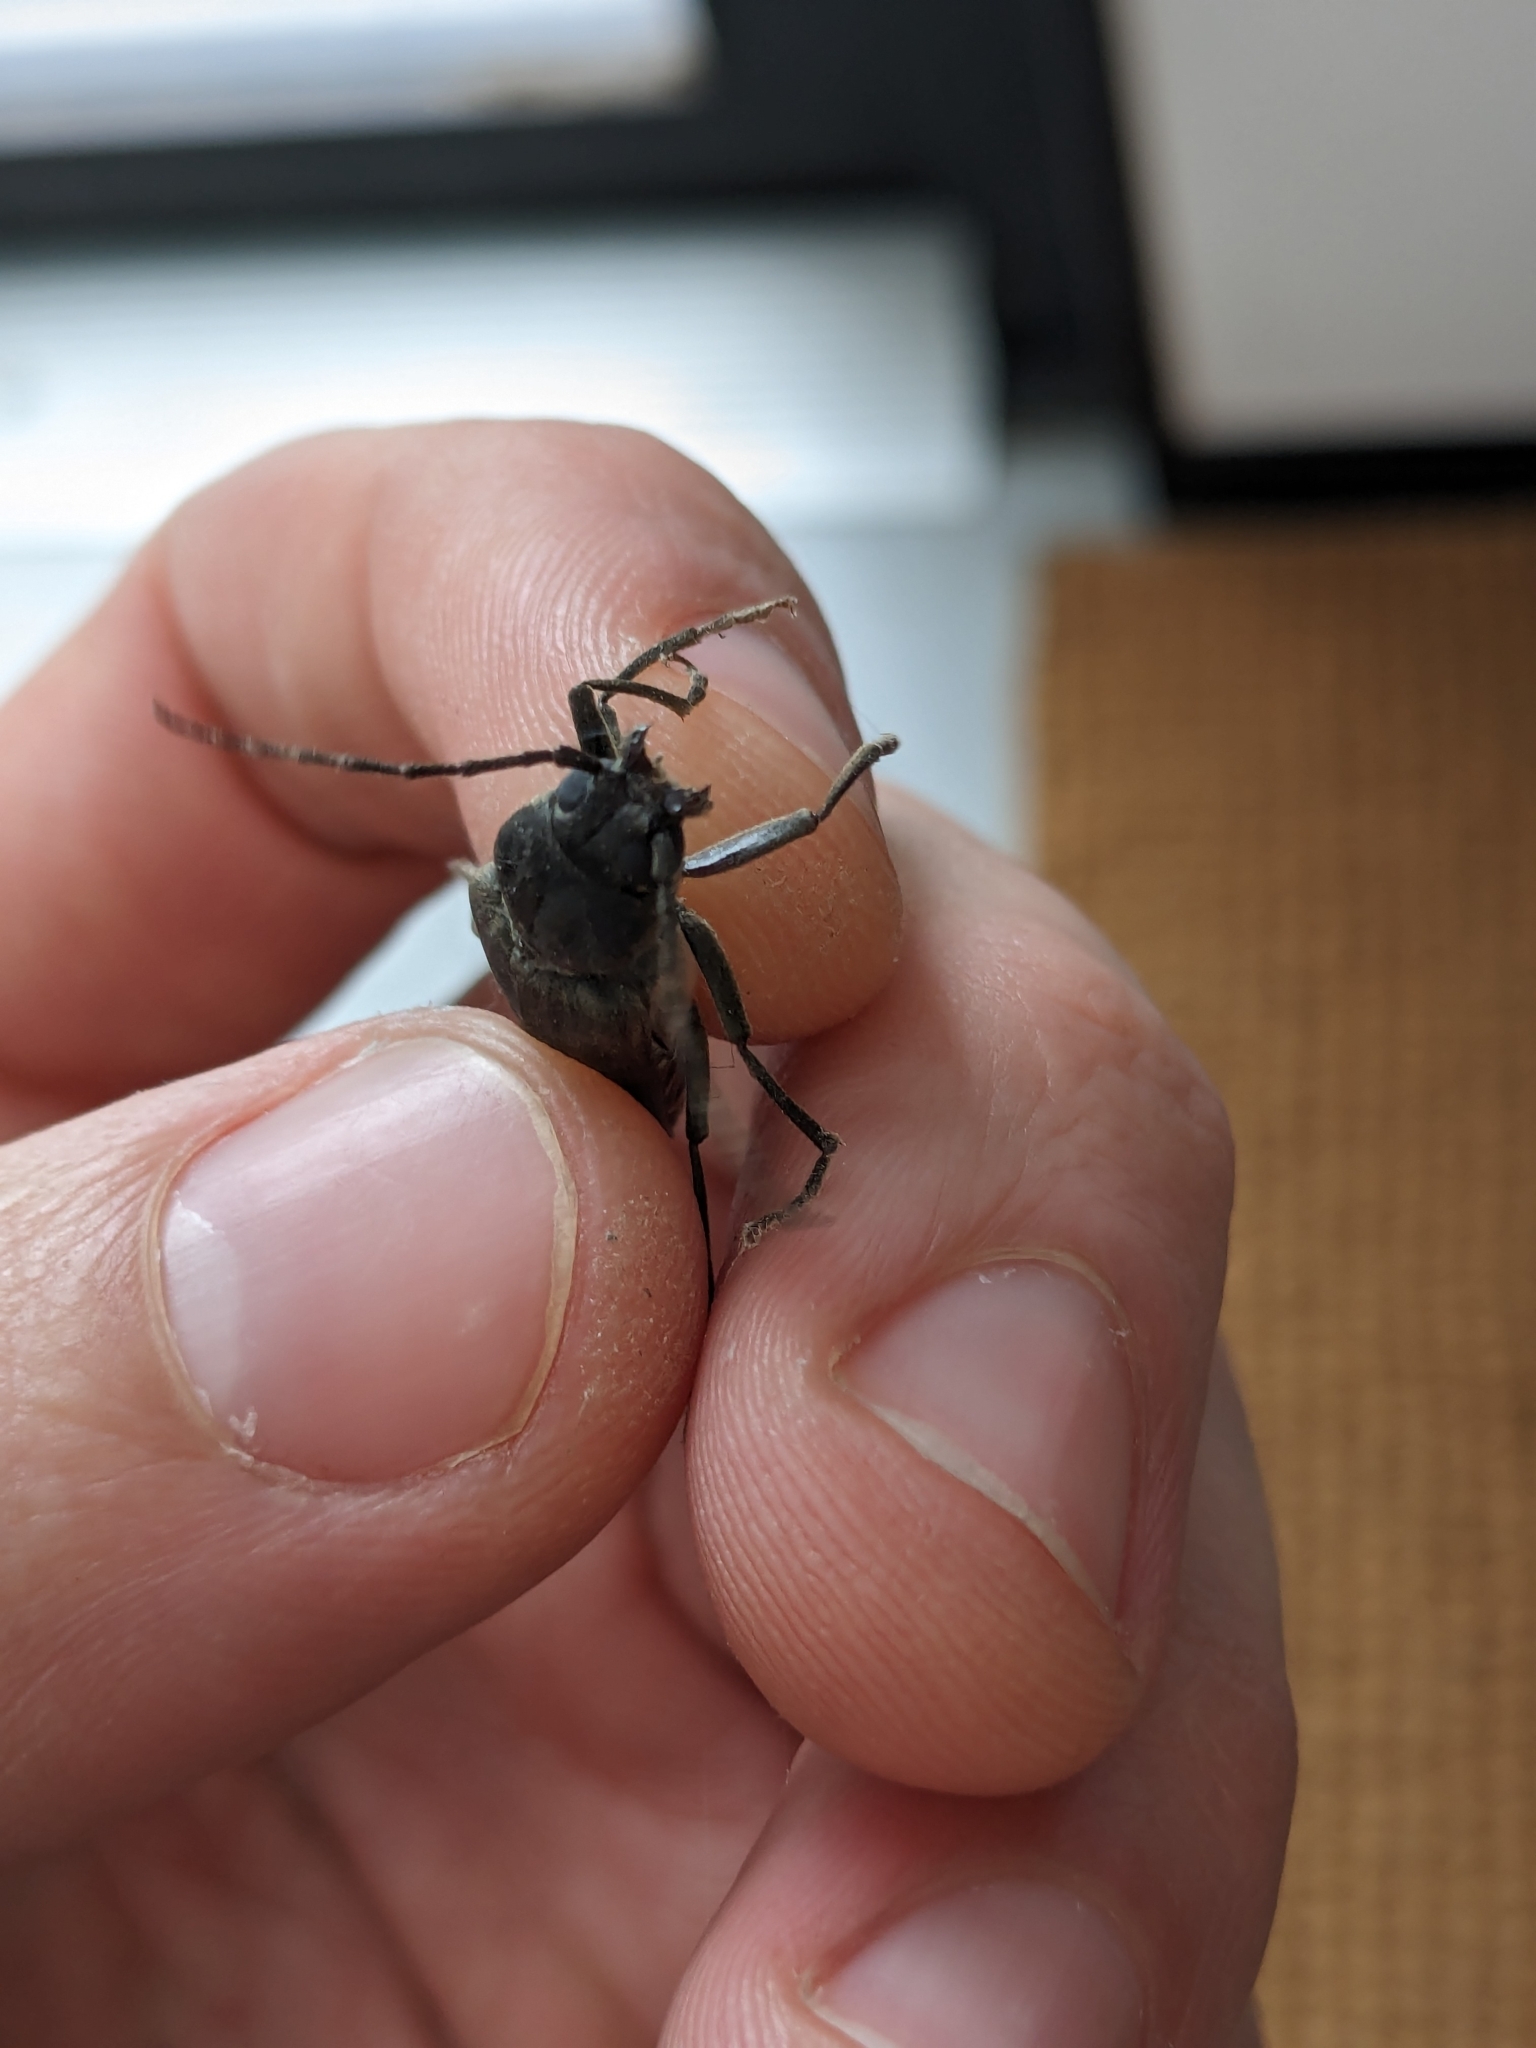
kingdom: Animalia
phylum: Arthropoda
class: Insecta
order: Coleoptera
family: Cerambycidae
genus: Arhopalus
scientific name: Arhopalus ferus
